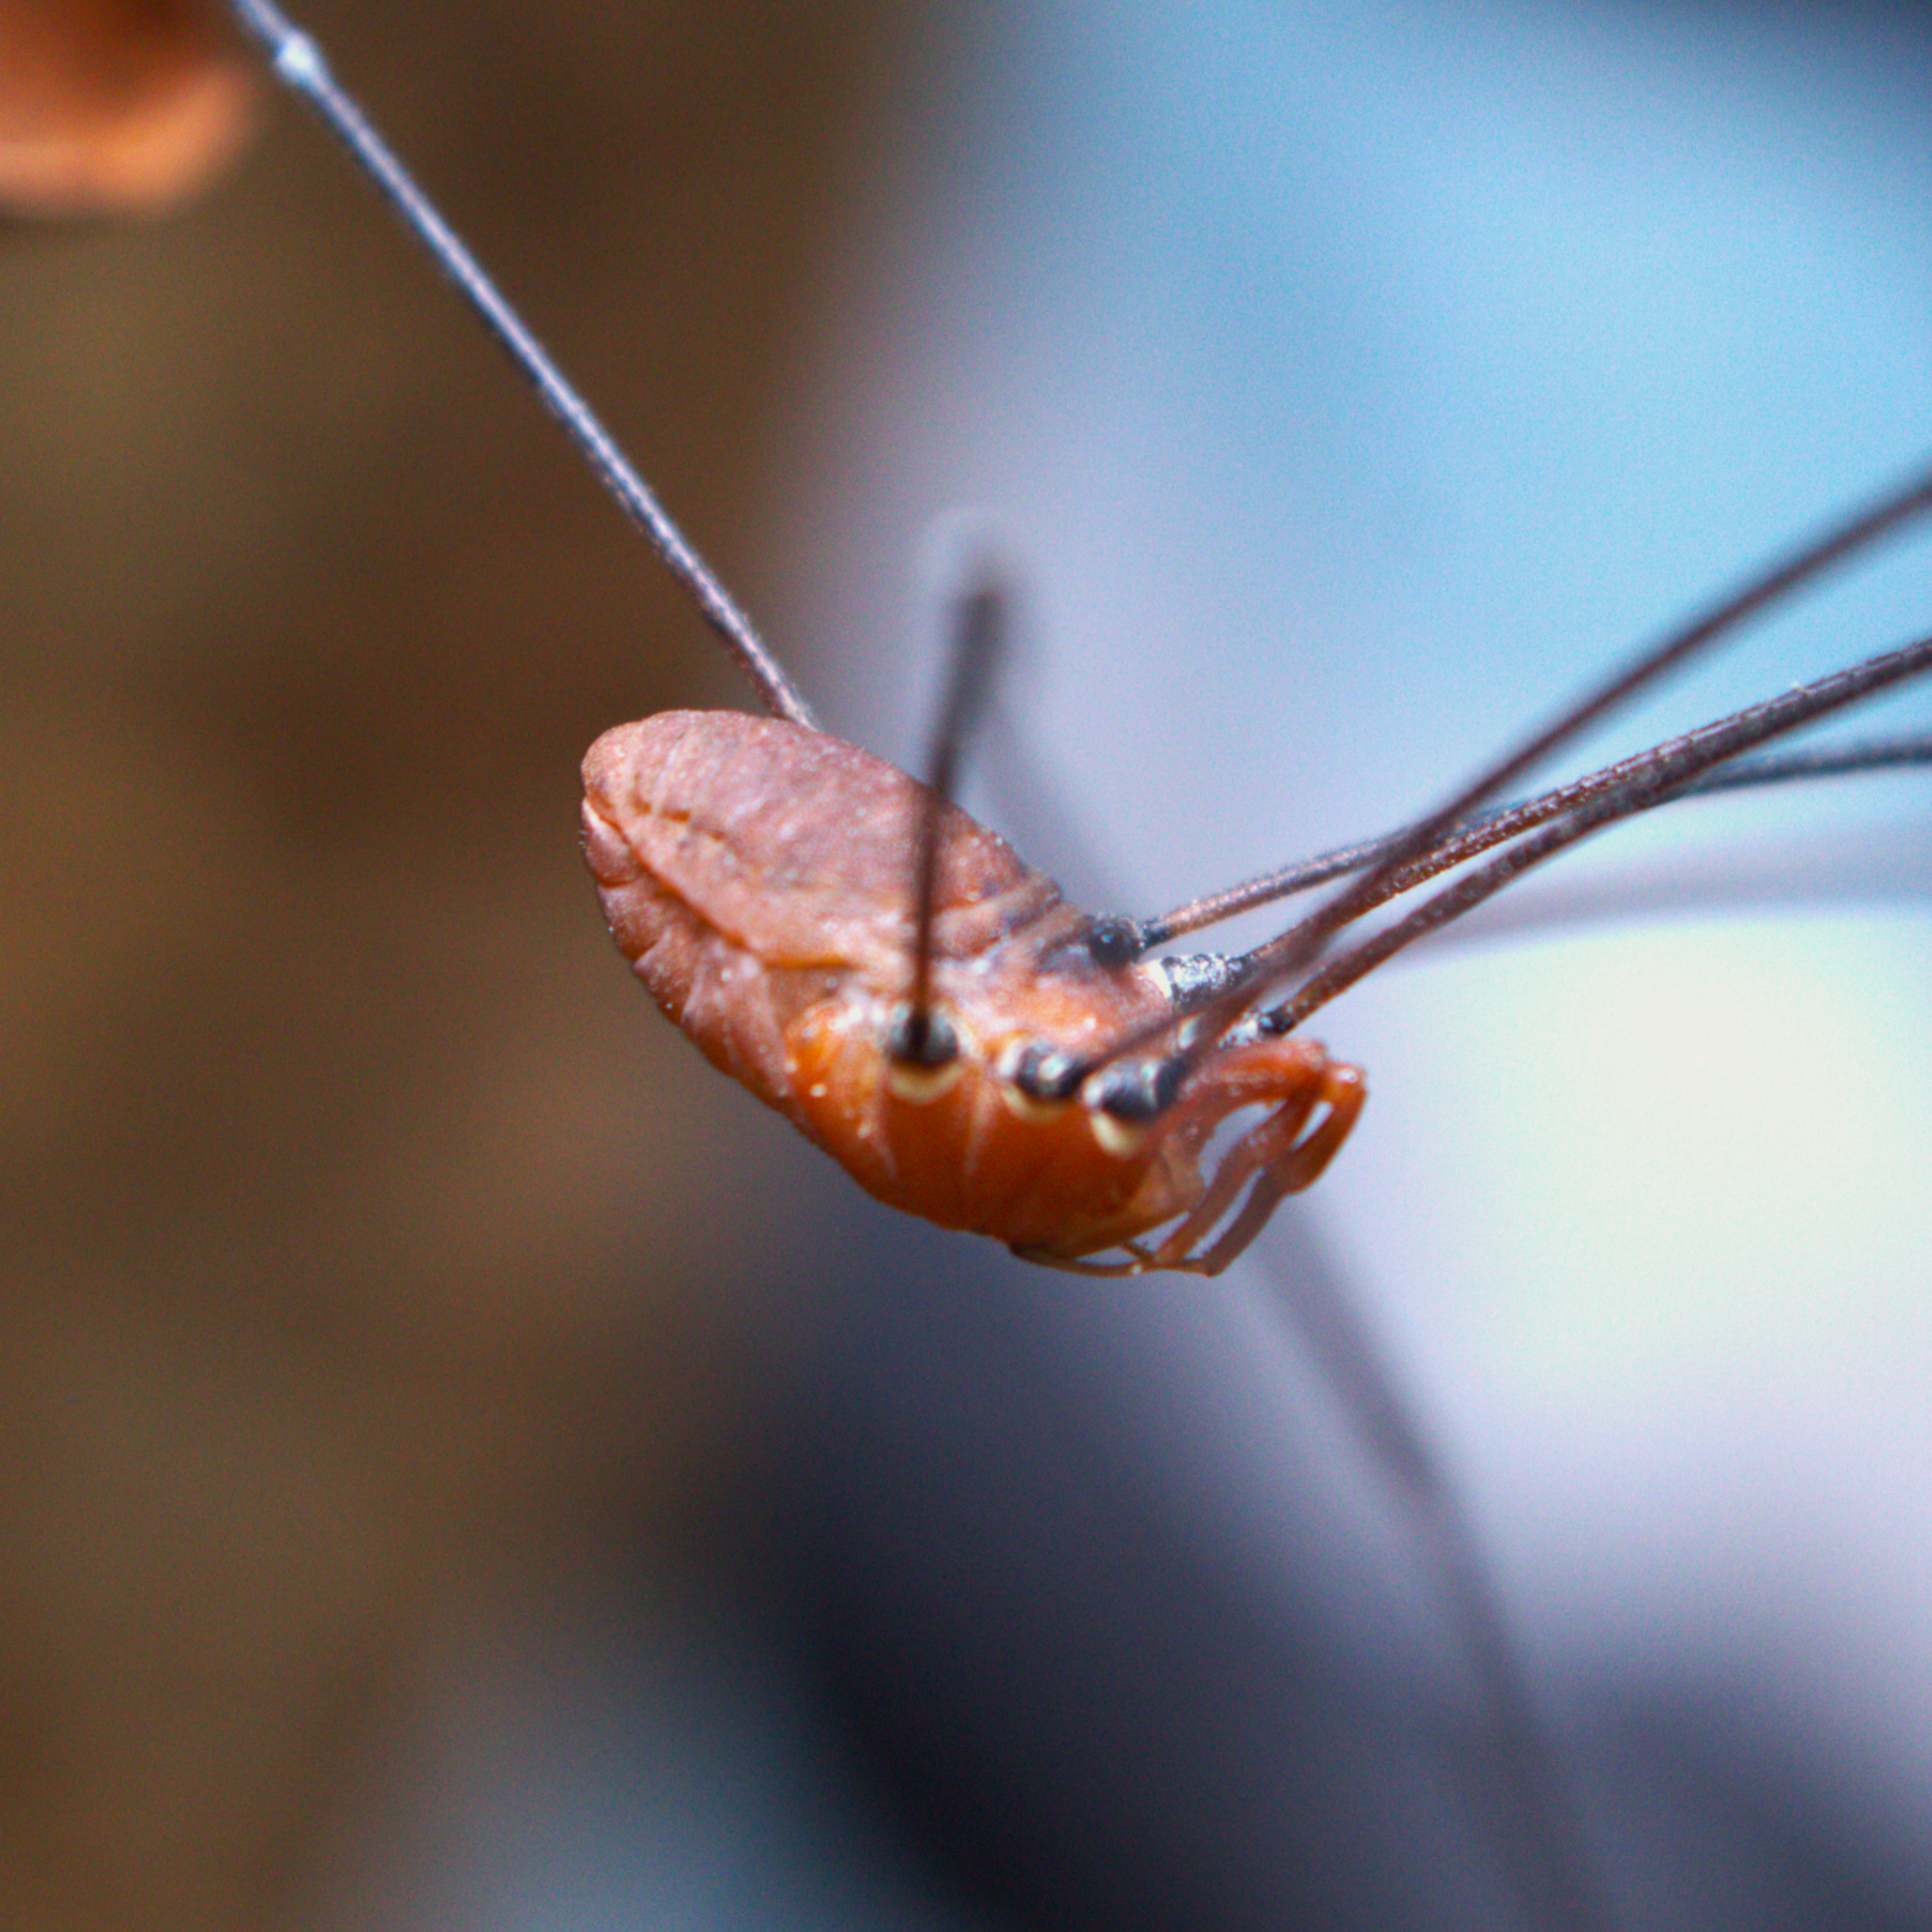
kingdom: Animalia
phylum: Arthropoda
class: Arachnida
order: Opiliones
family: Sclerosomatidae
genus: Leiobunum
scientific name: Leiobunum vittatum
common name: Eastern harvestman
